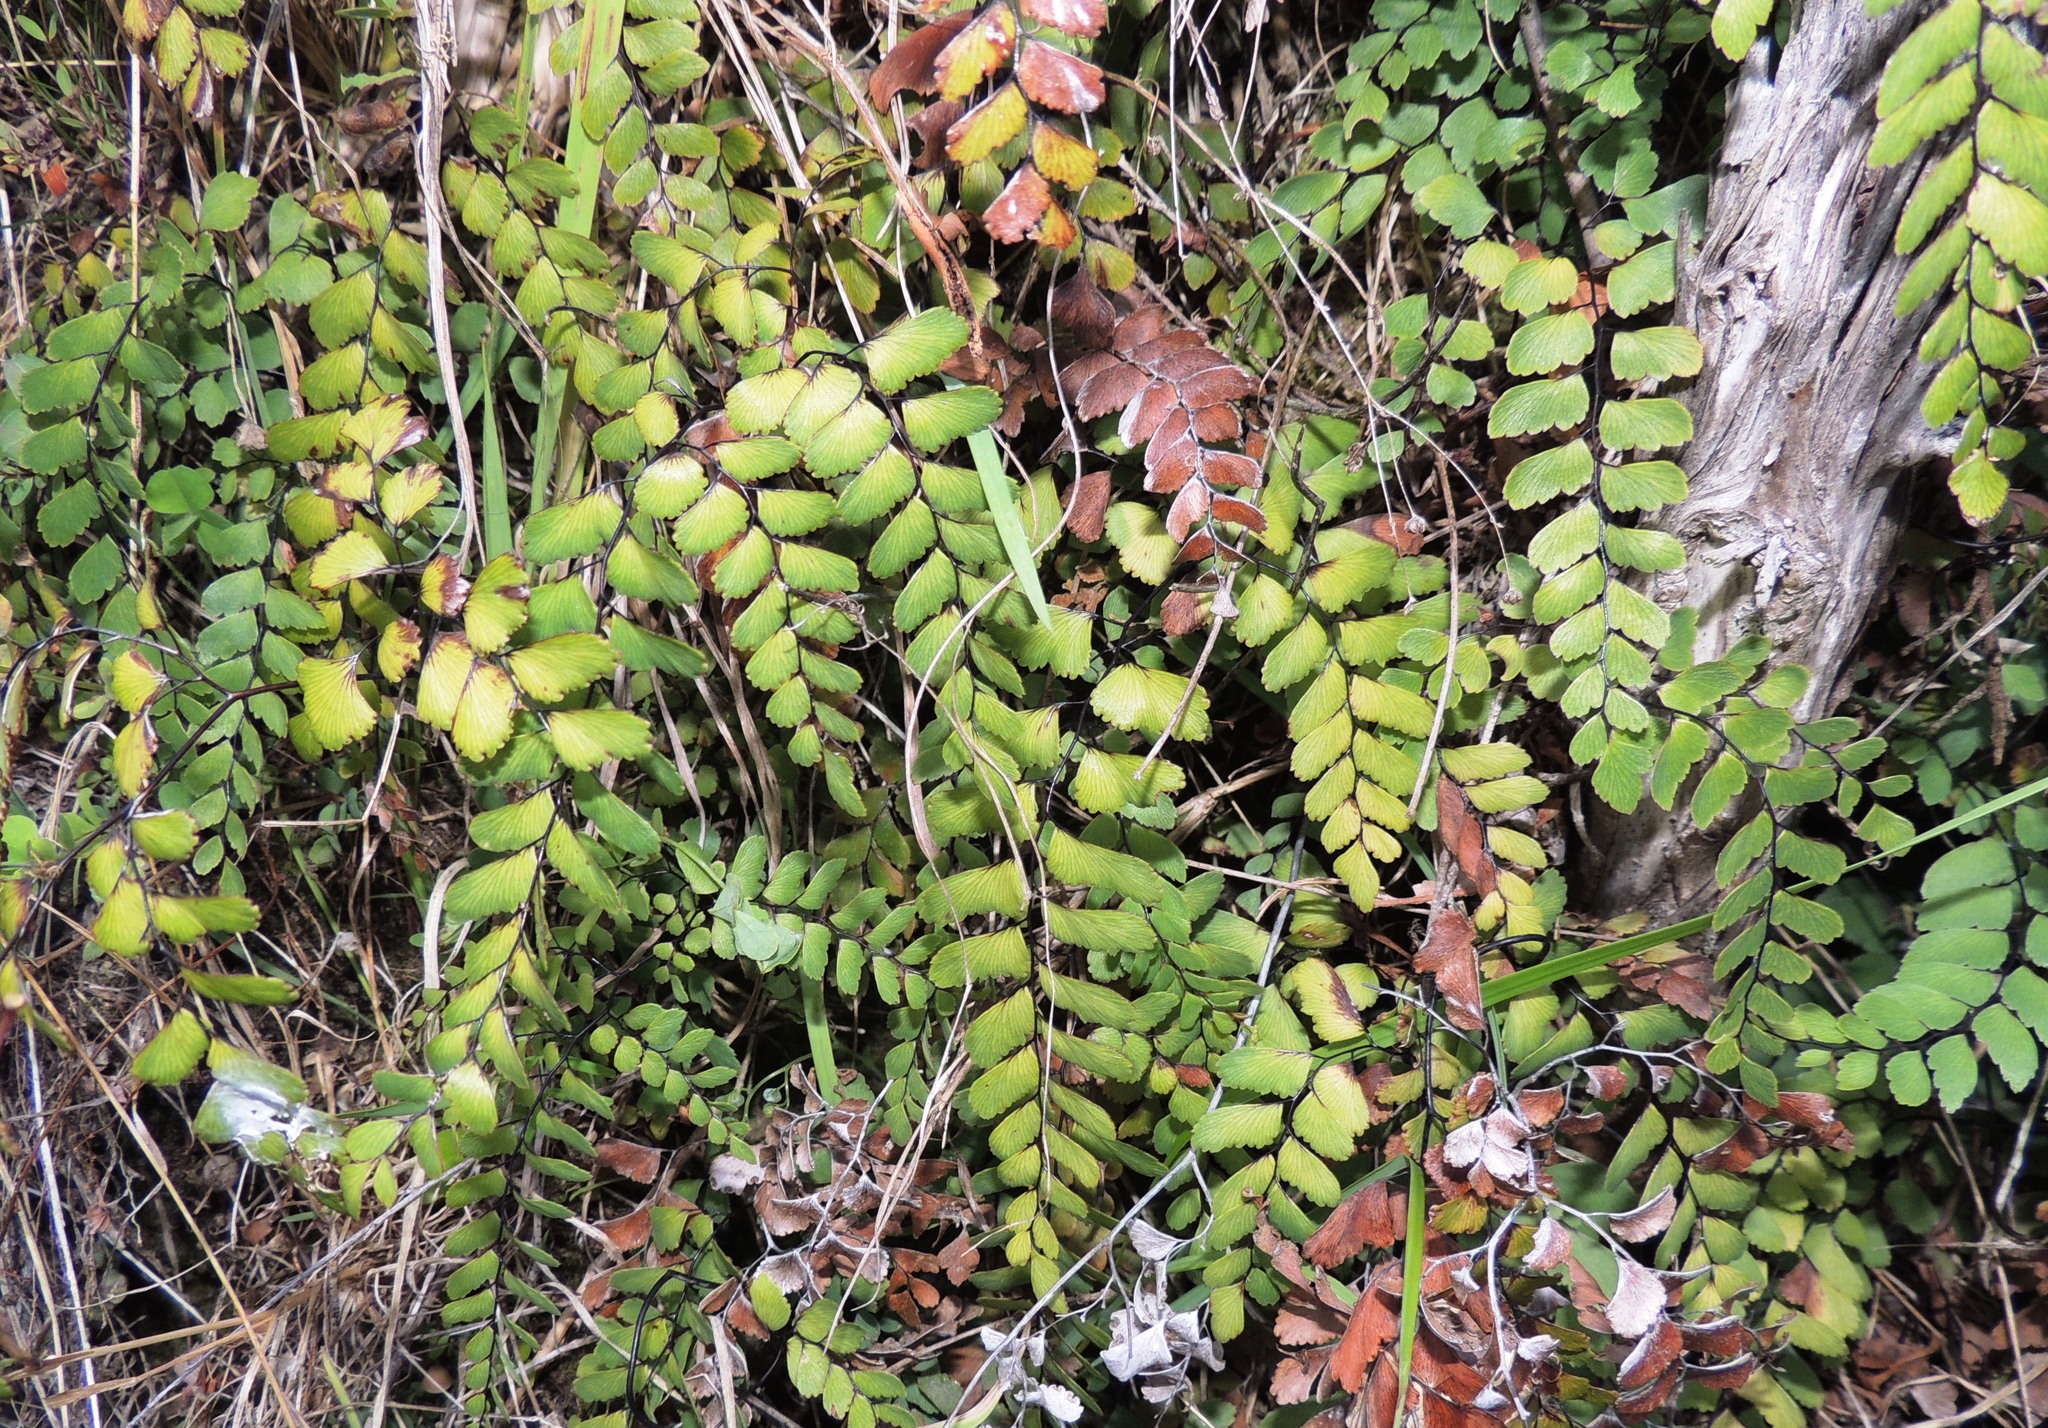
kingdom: Plantae
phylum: Tracheophyta
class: Polypodiopsida
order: Polypodiales
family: Pteridaceae
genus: Adiantum
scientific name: Adiantum cunninghamii
